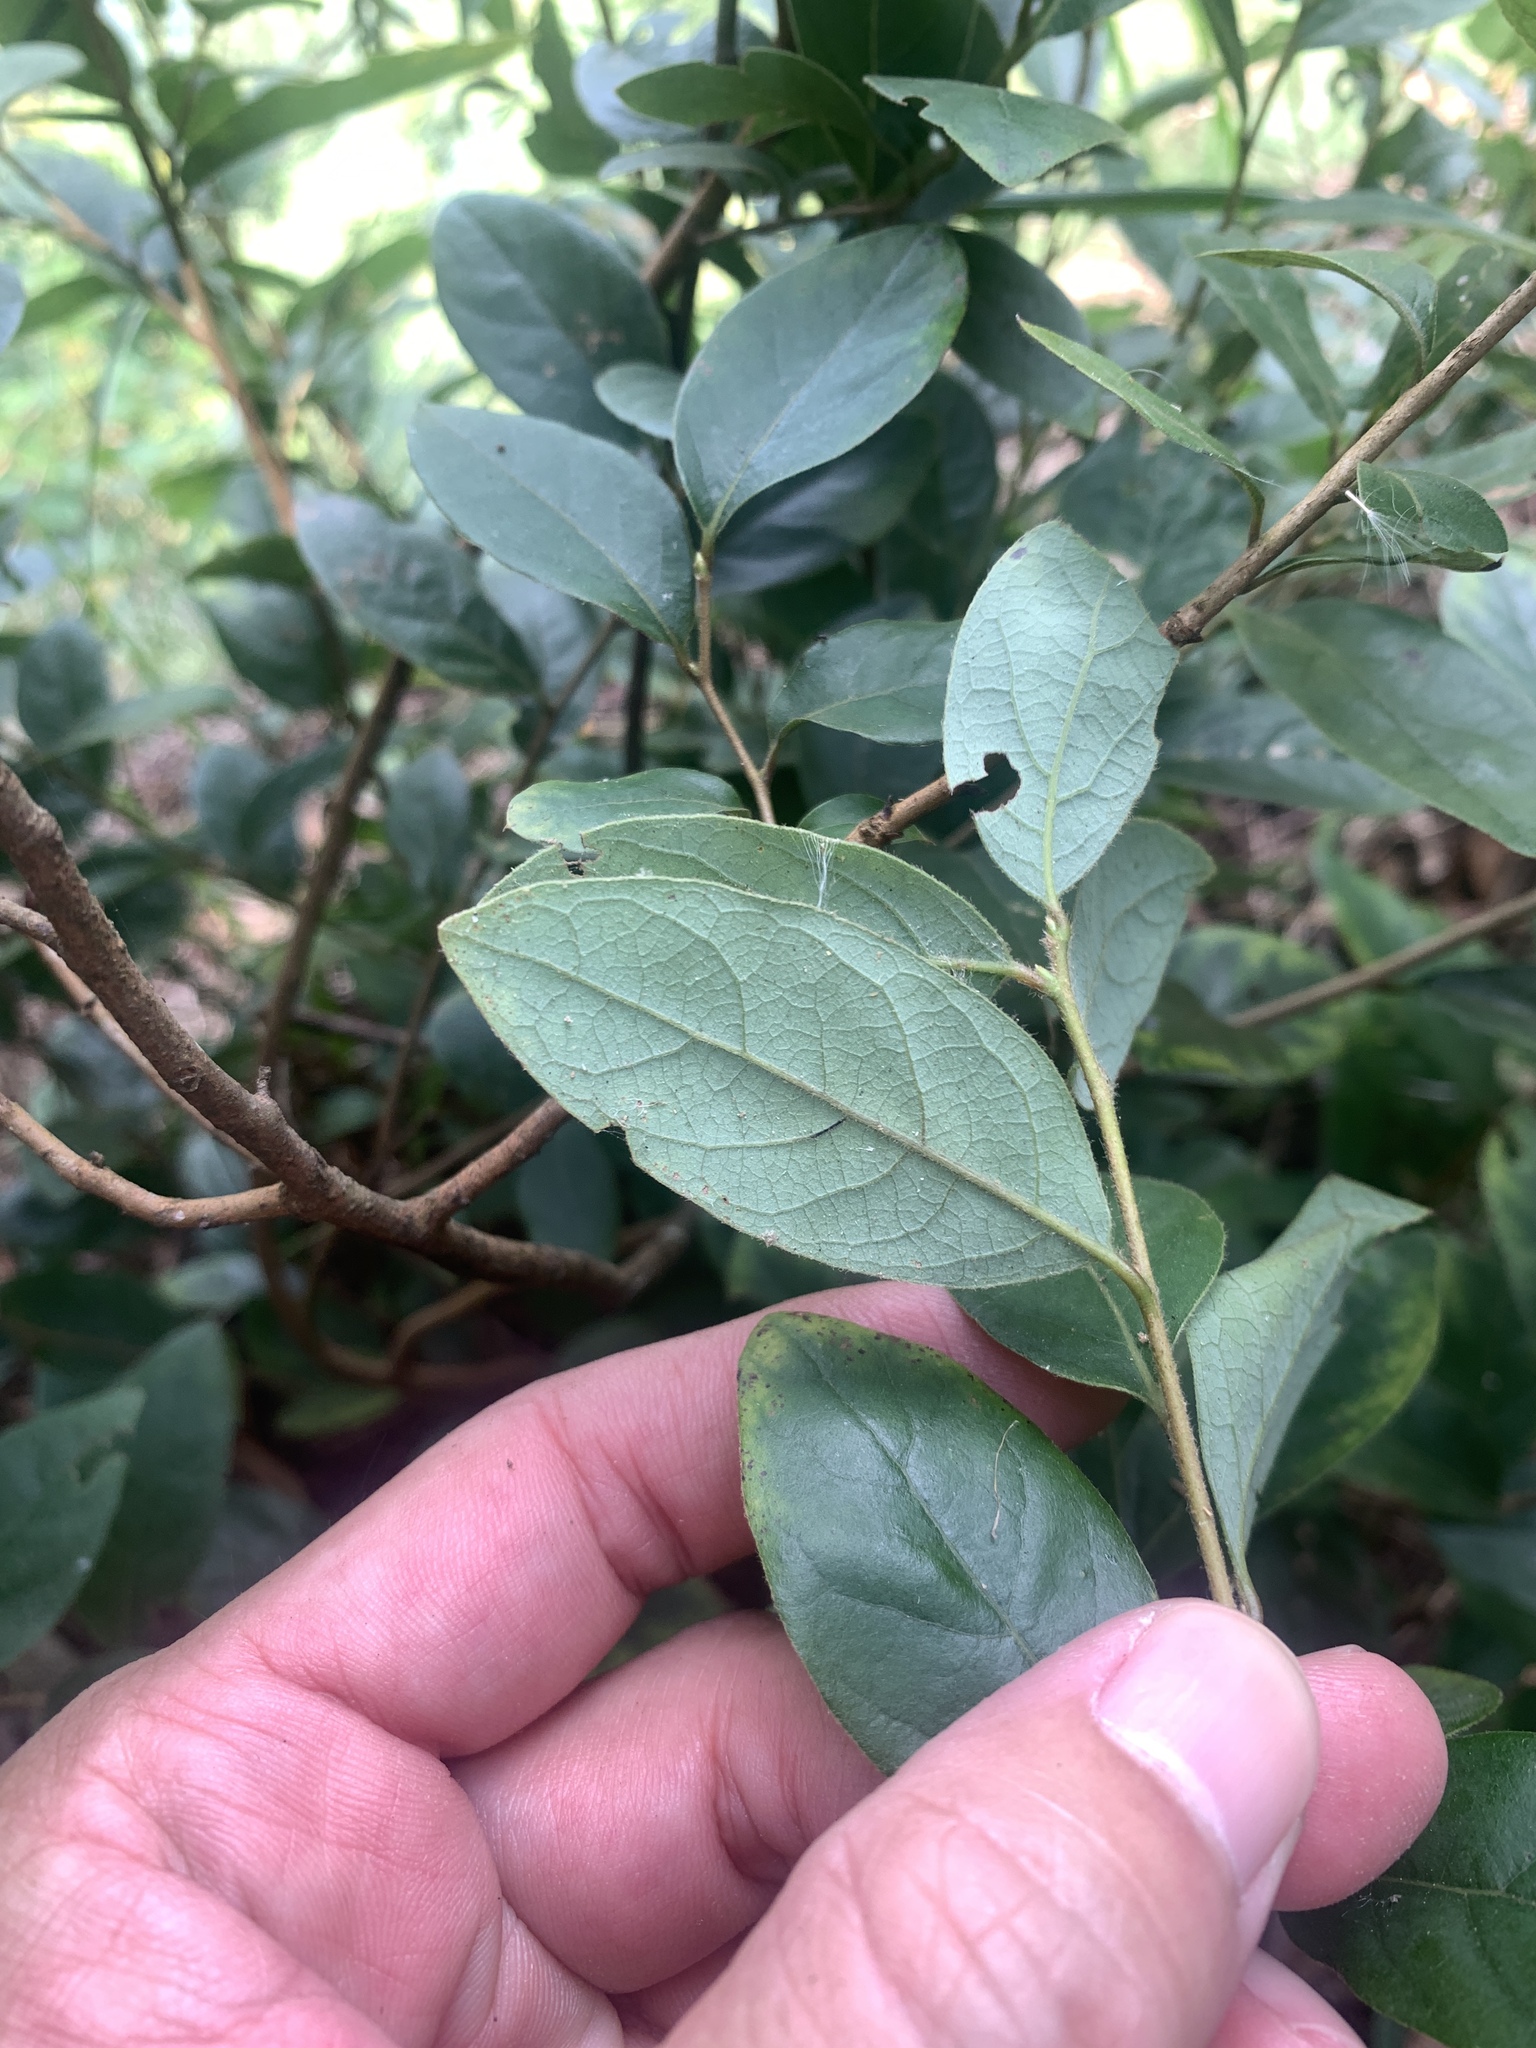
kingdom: Plantae
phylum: Tracheophyta
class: Magnoliopsida
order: Laurales
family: Lauraceae
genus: Lindera
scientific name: Lindera glauca
